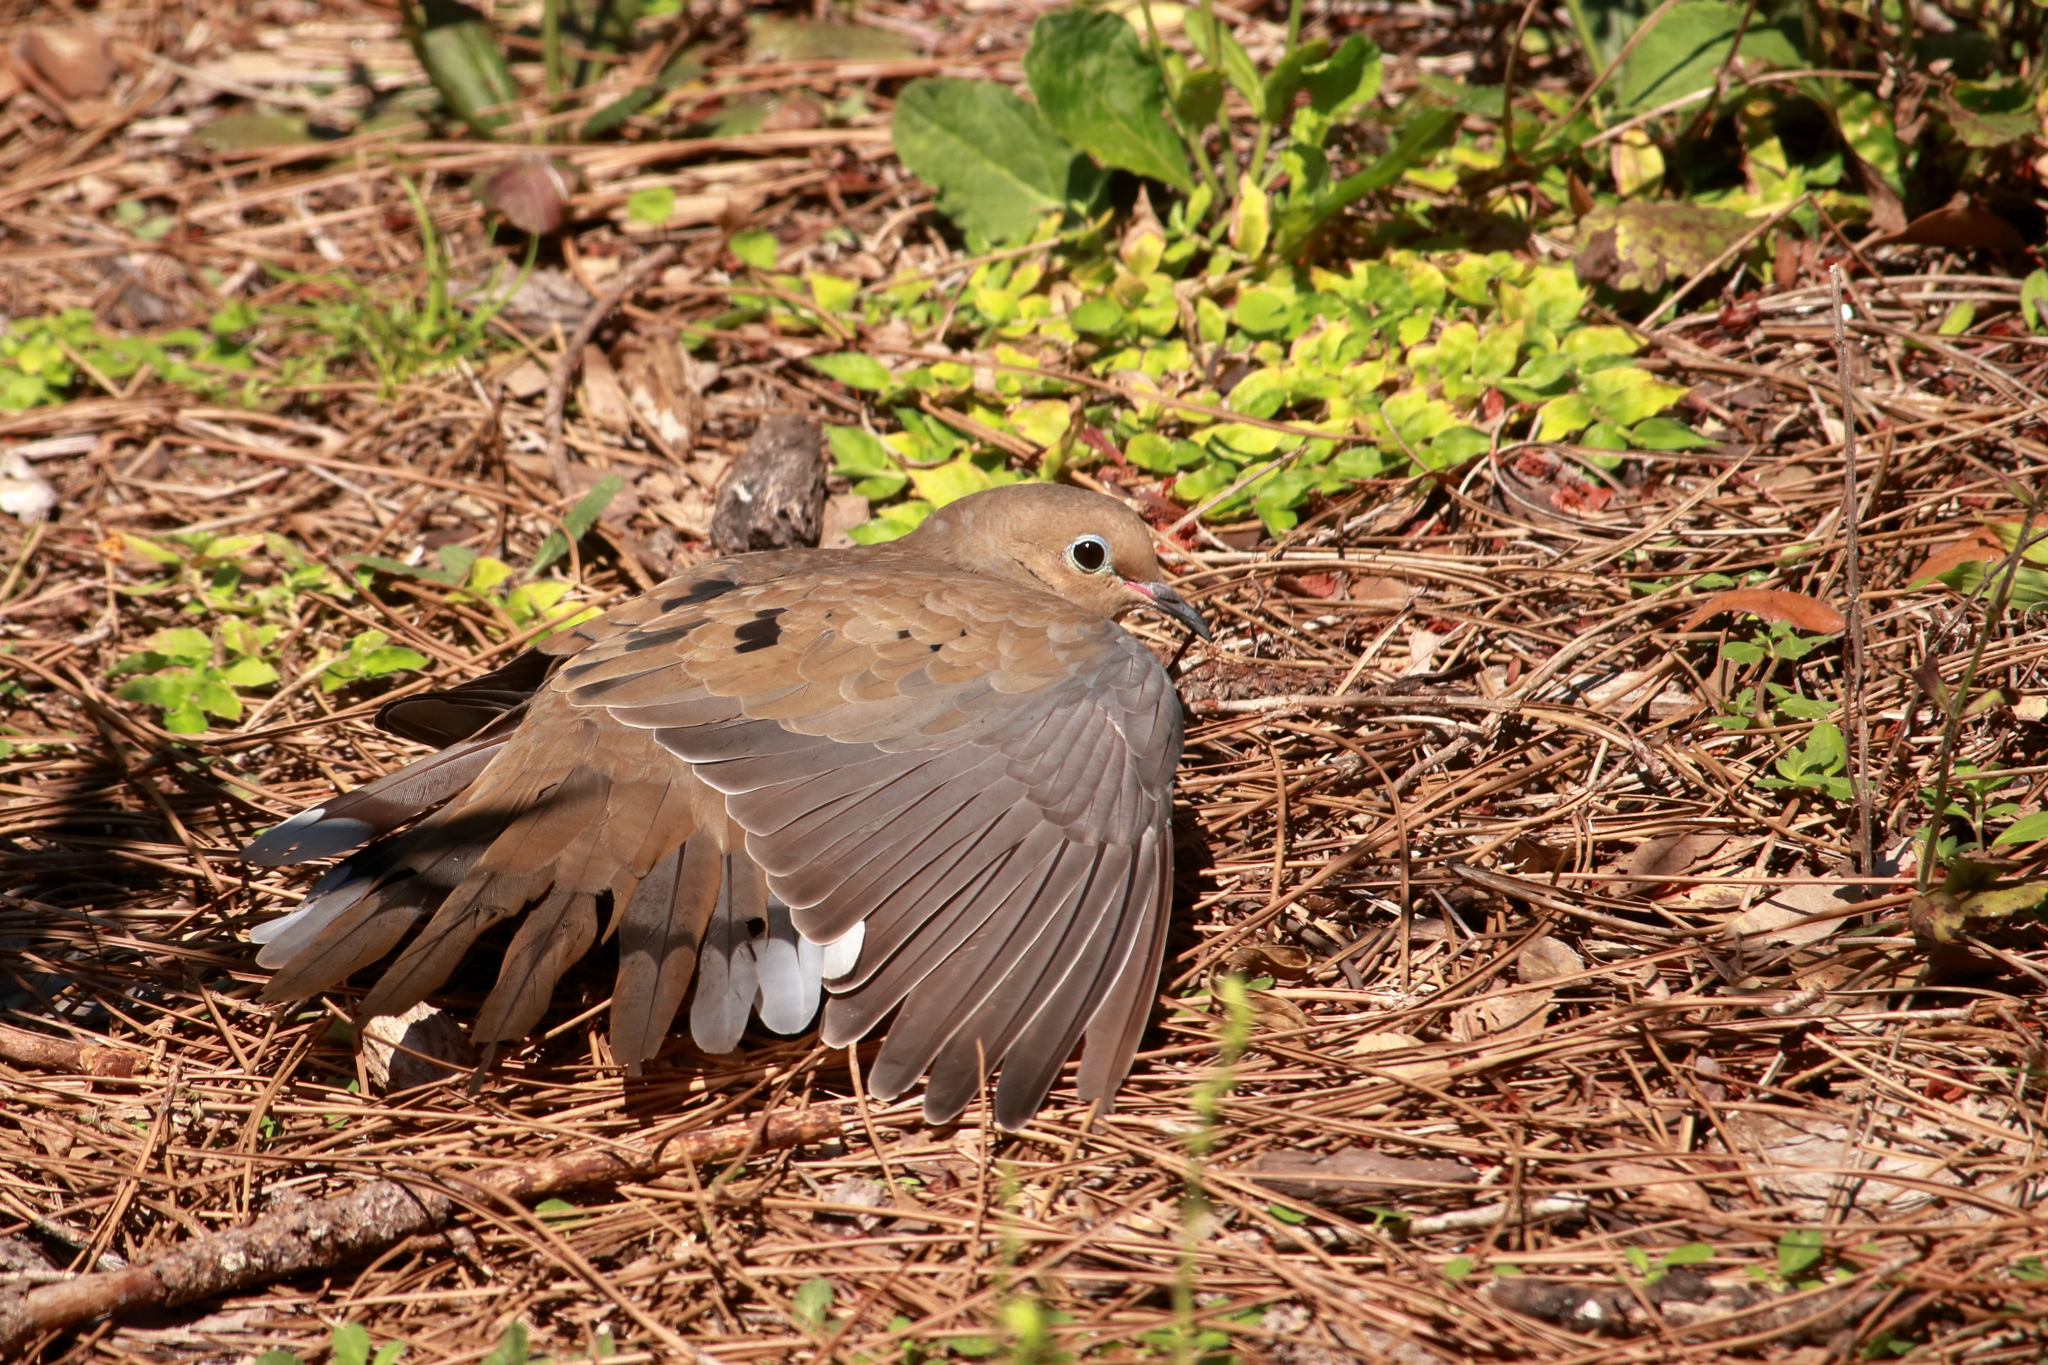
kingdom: Animalia
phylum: Chordata
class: Aves
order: Columbiformes
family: Columbidae
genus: Zenaida
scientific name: Zenaida macroura
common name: Mourning dove
